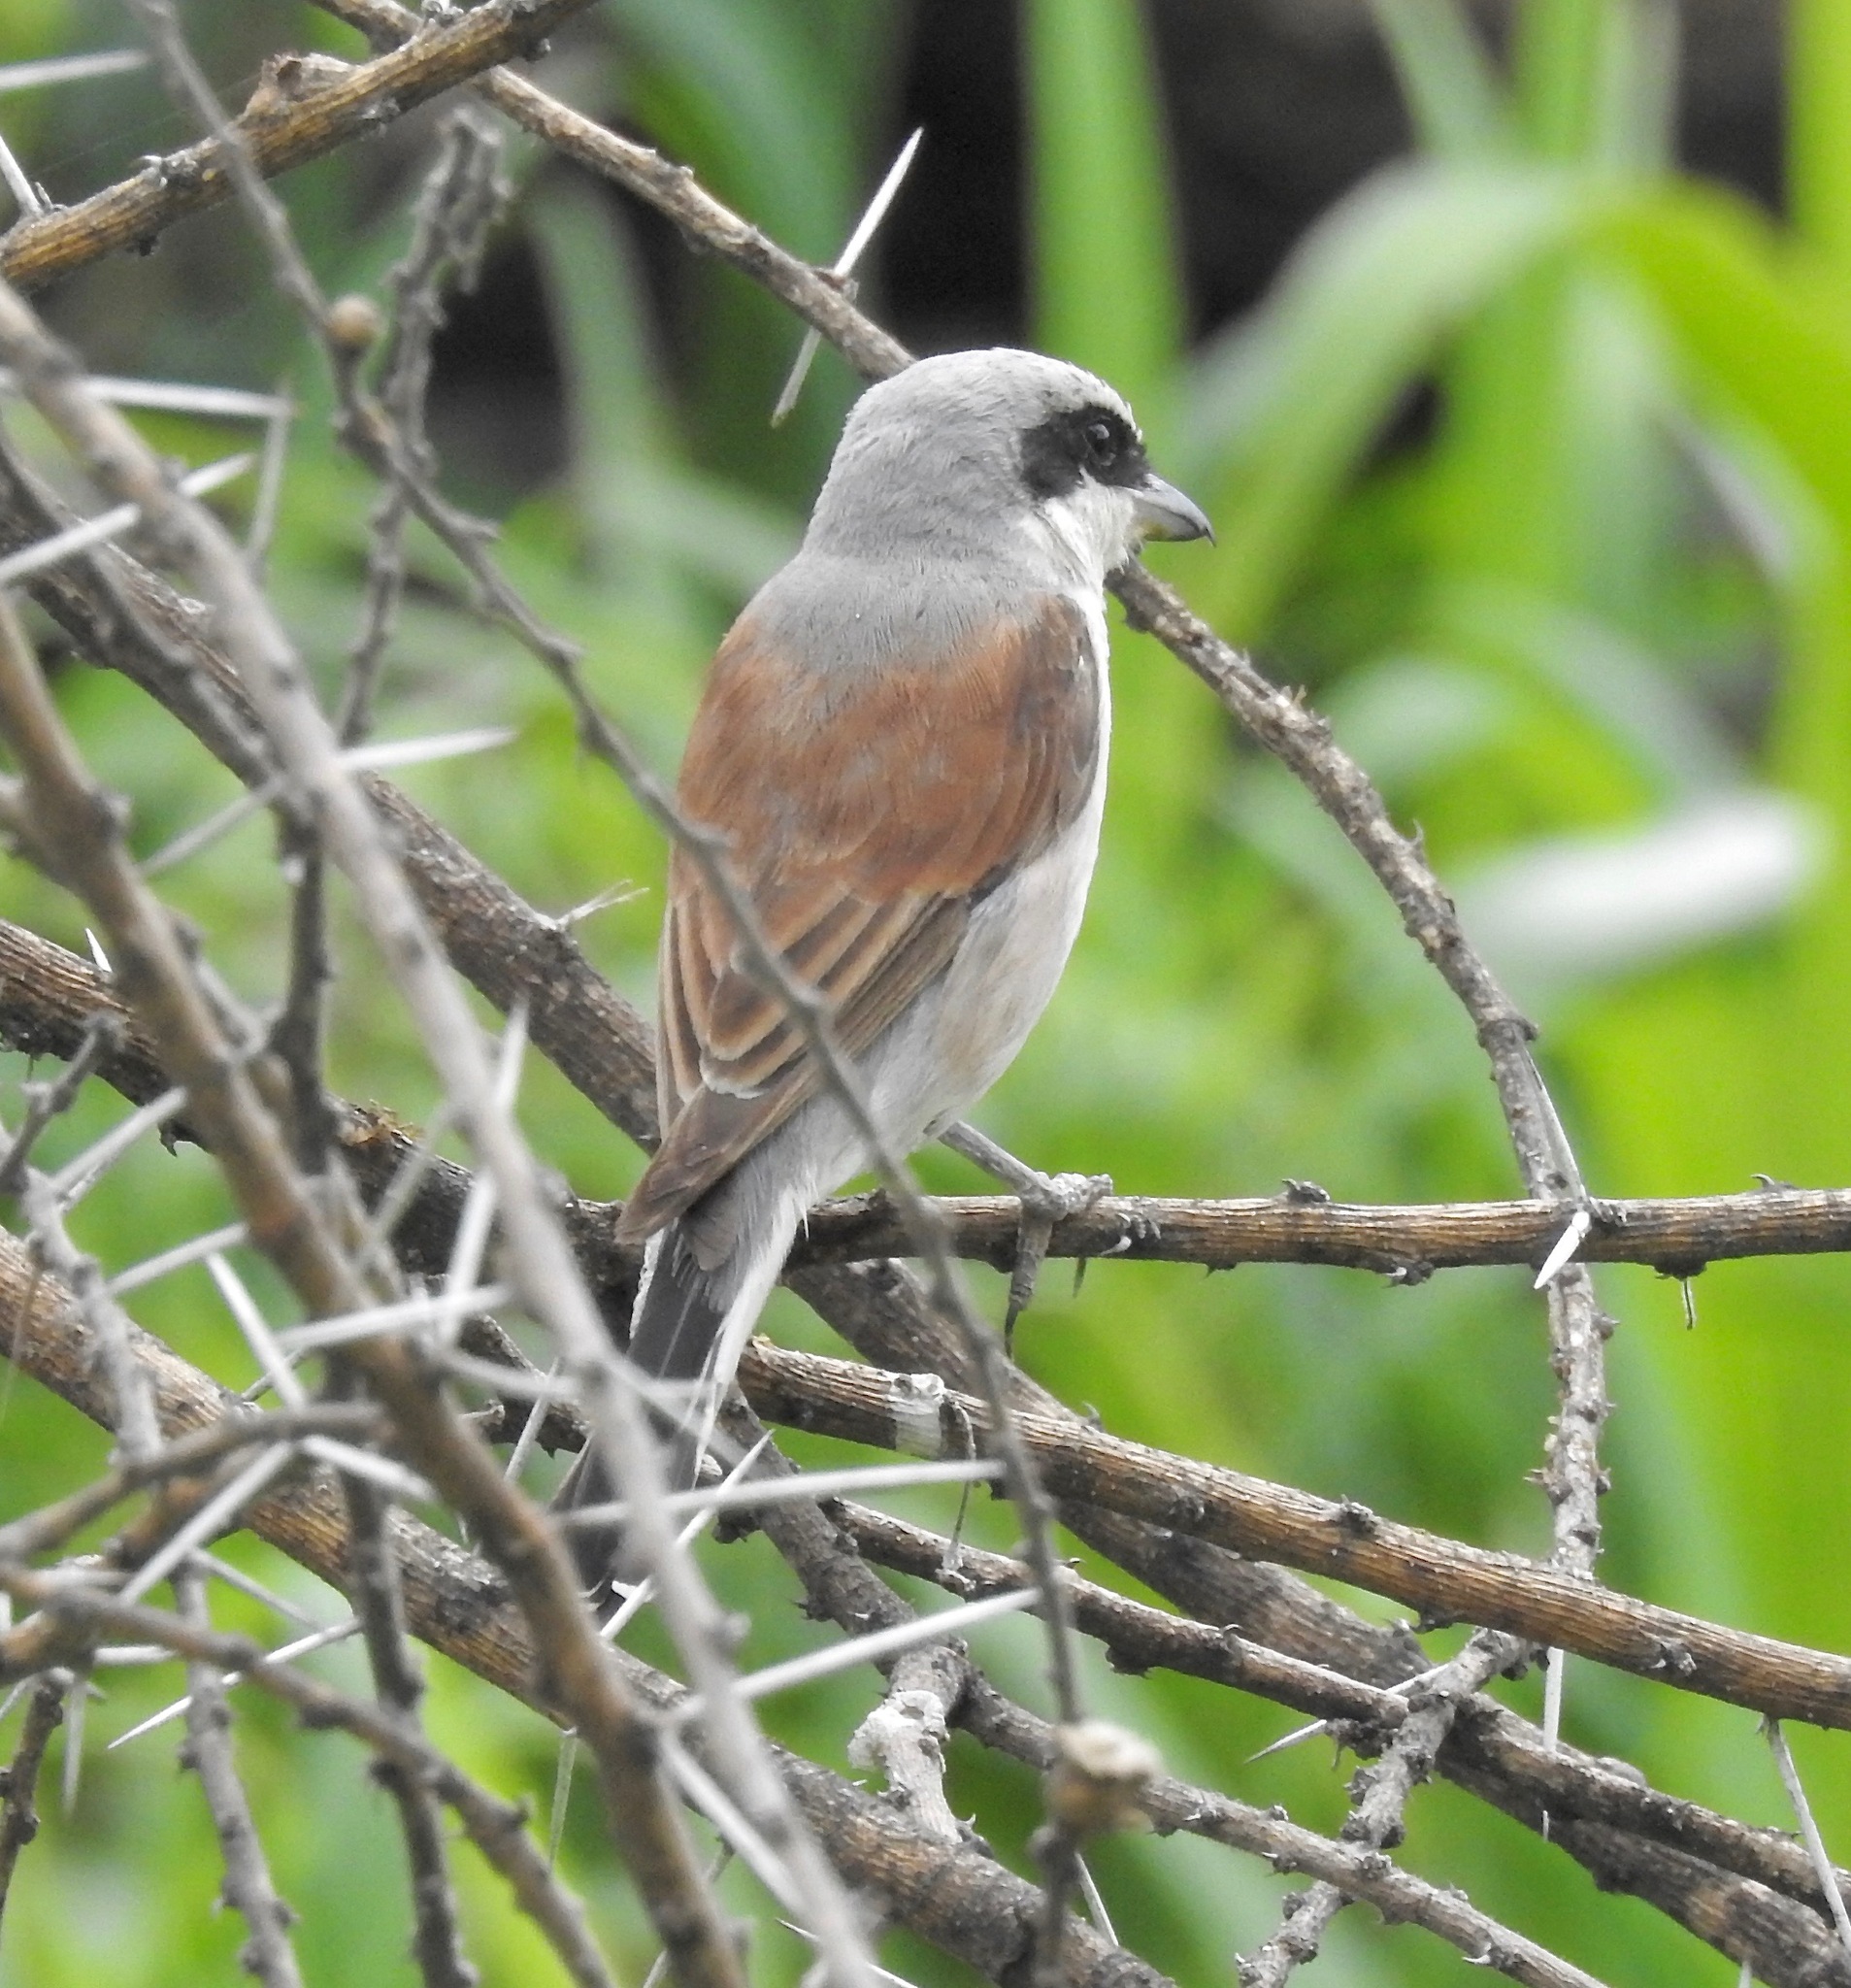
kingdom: Animalia
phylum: Chordata
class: Aves
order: Passeriformes
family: Laniidae
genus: Lanius
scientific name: Lanius collurio
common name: Red-backed shrike
